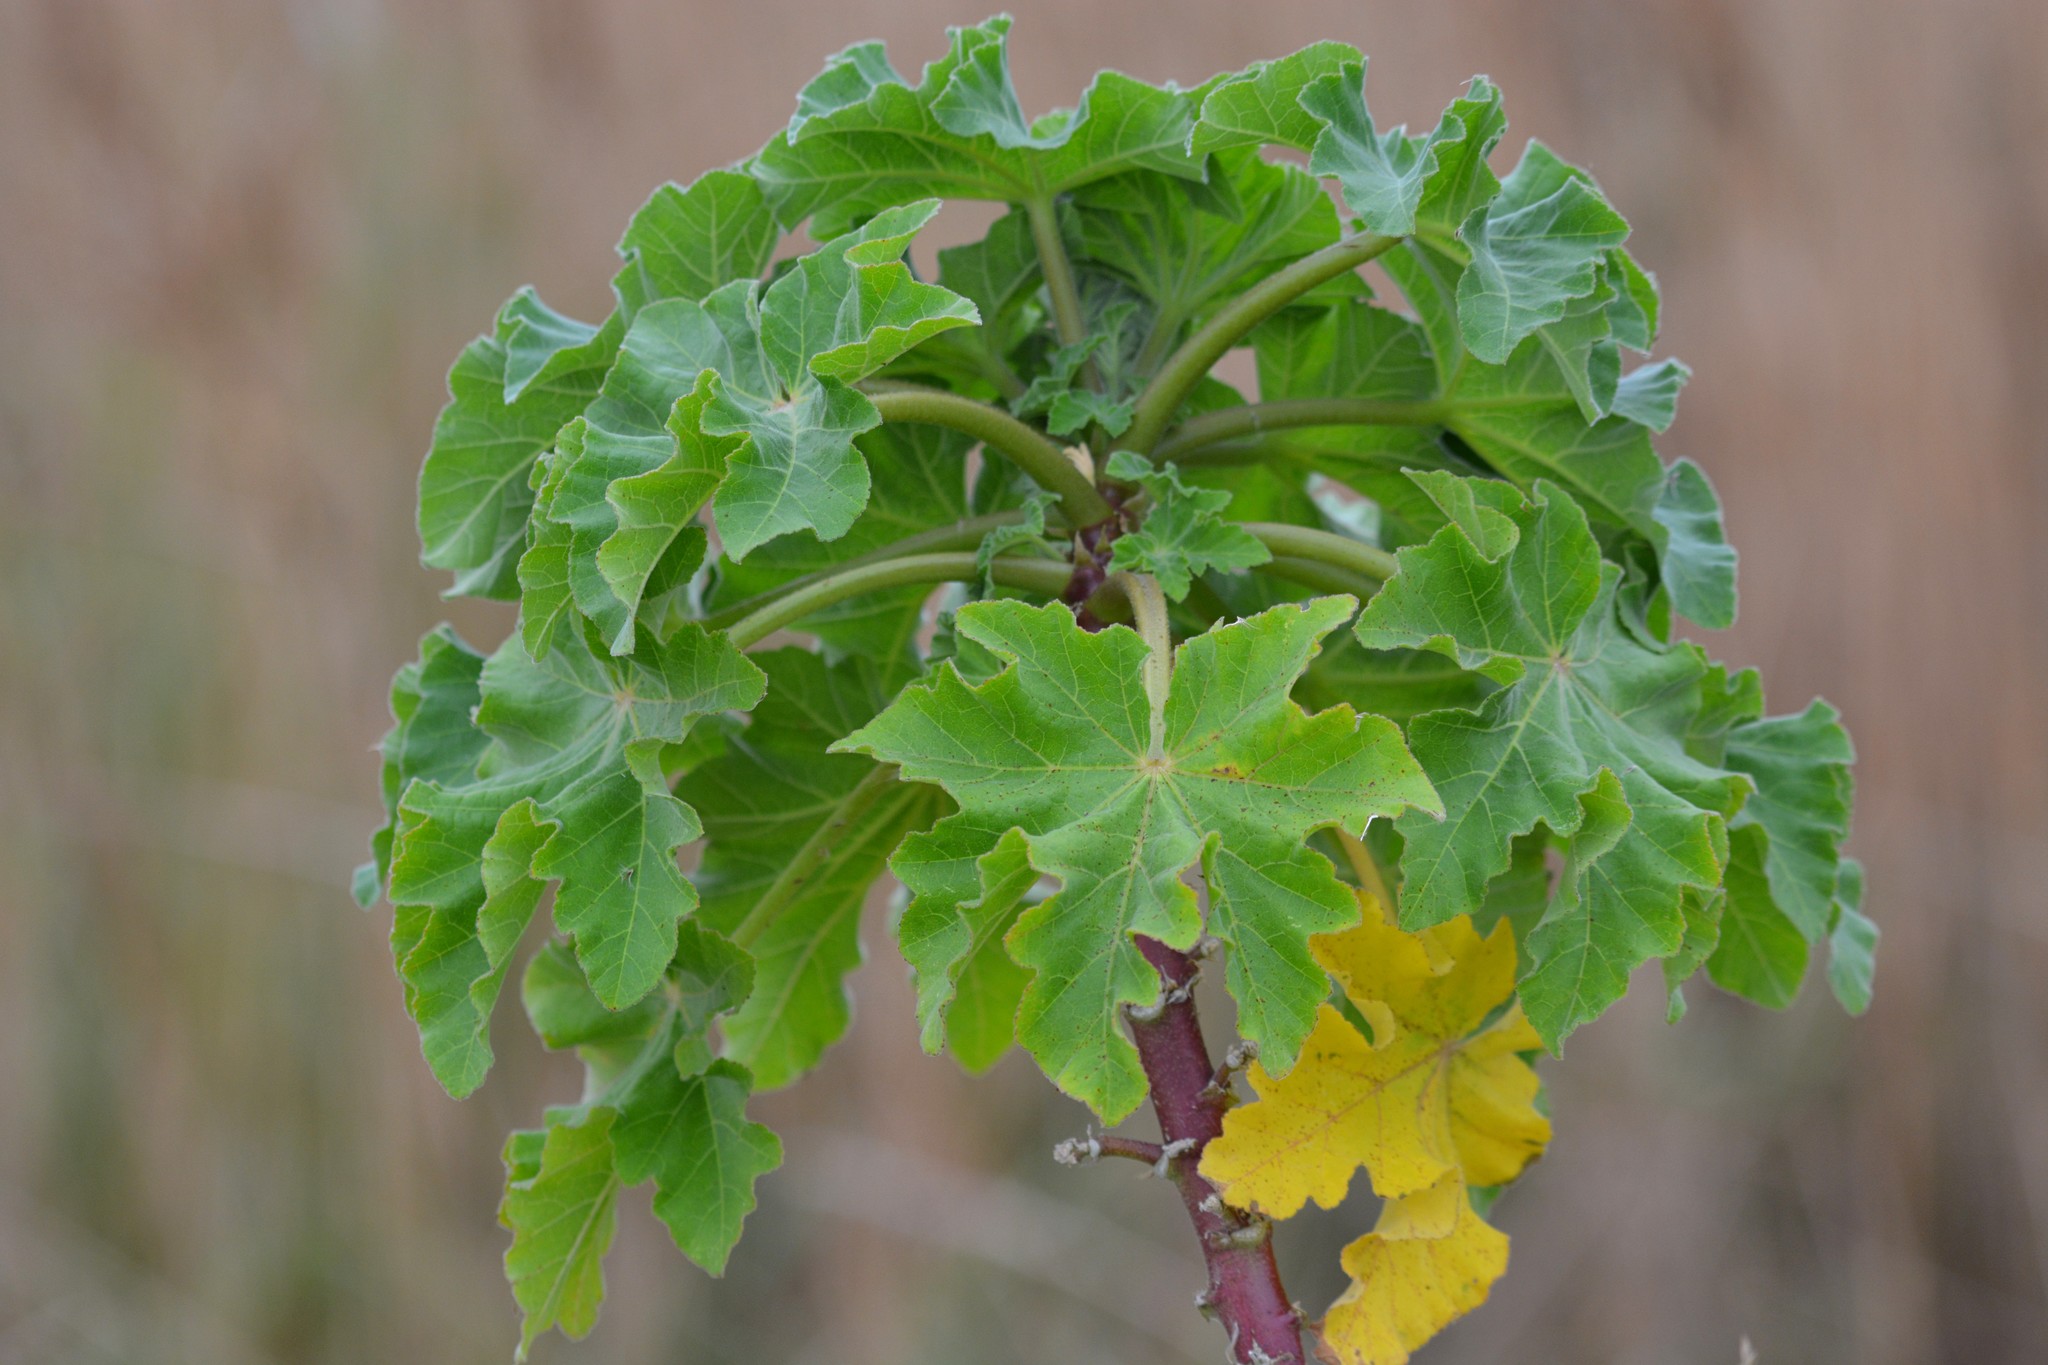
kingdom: Plantae
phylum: Tracheophyta
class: Magnoliopsida
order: Malvales
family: Malvaceae
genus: Malva
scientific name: Malva arborea
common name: Tree mallow
